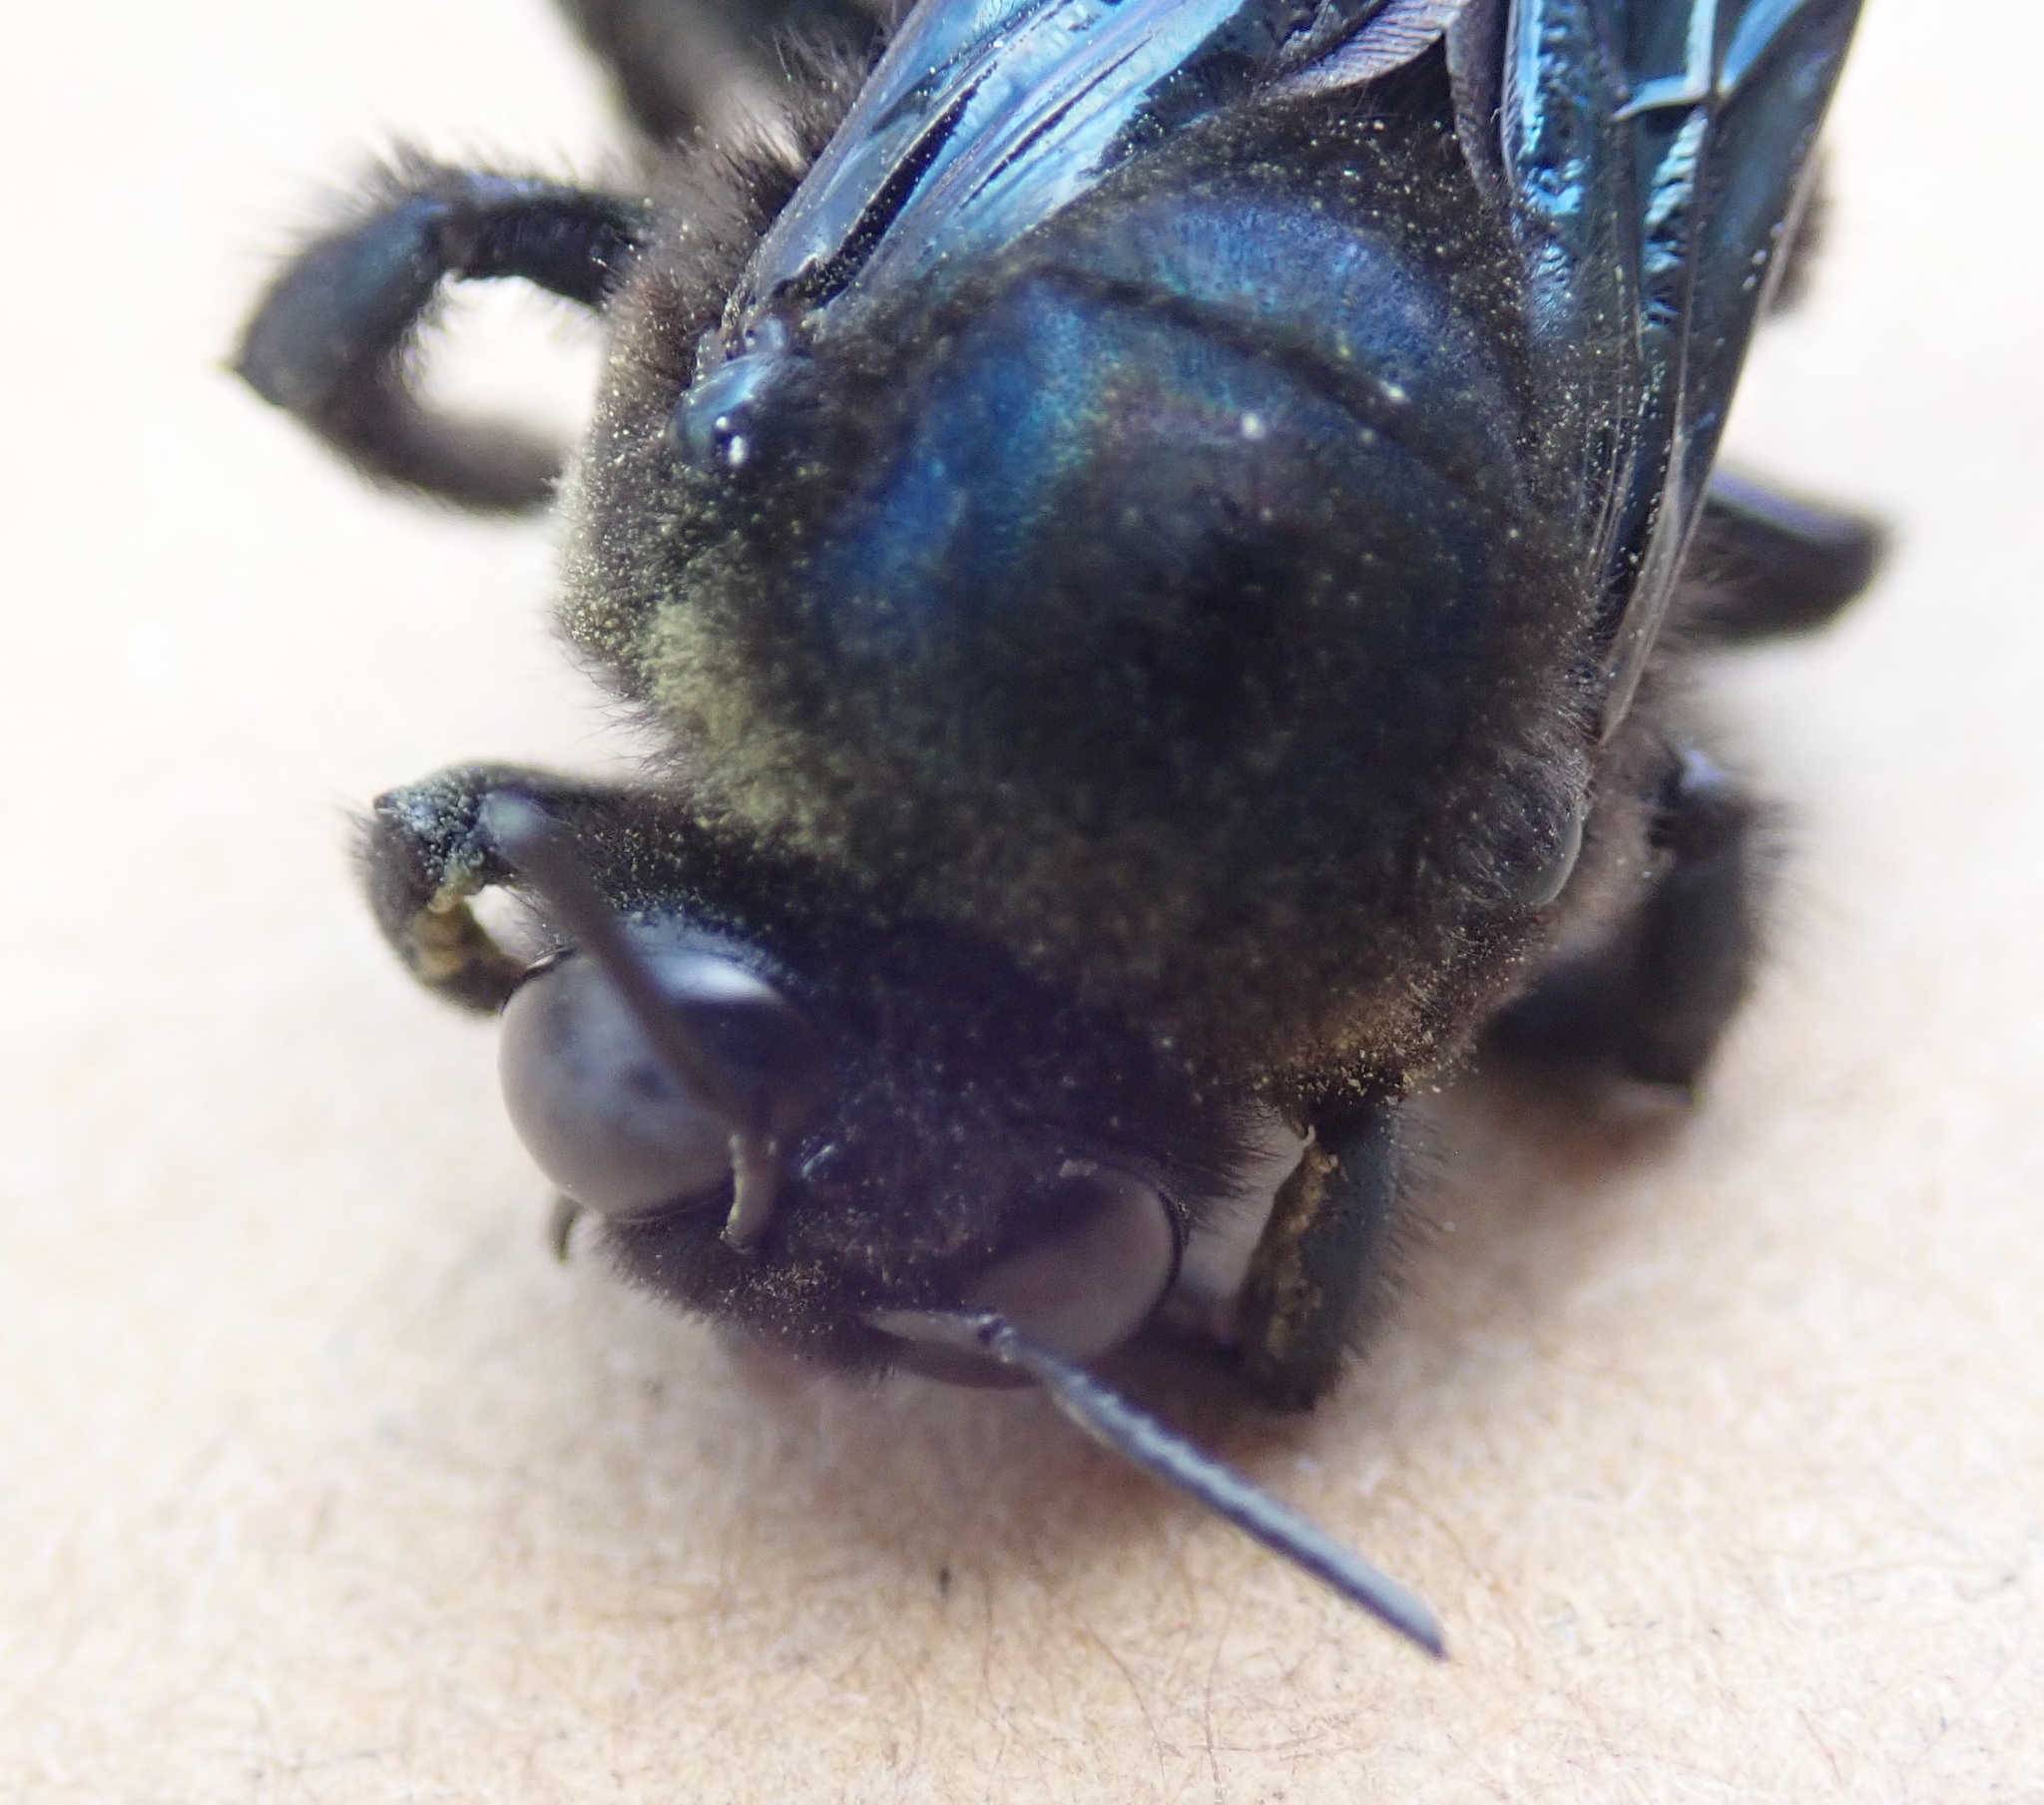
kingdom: Animalia
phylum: Arthropoda
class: Insecta
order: Hymenoptera
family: Apidae
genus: Xylocopa
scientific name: Xylocopa californica
